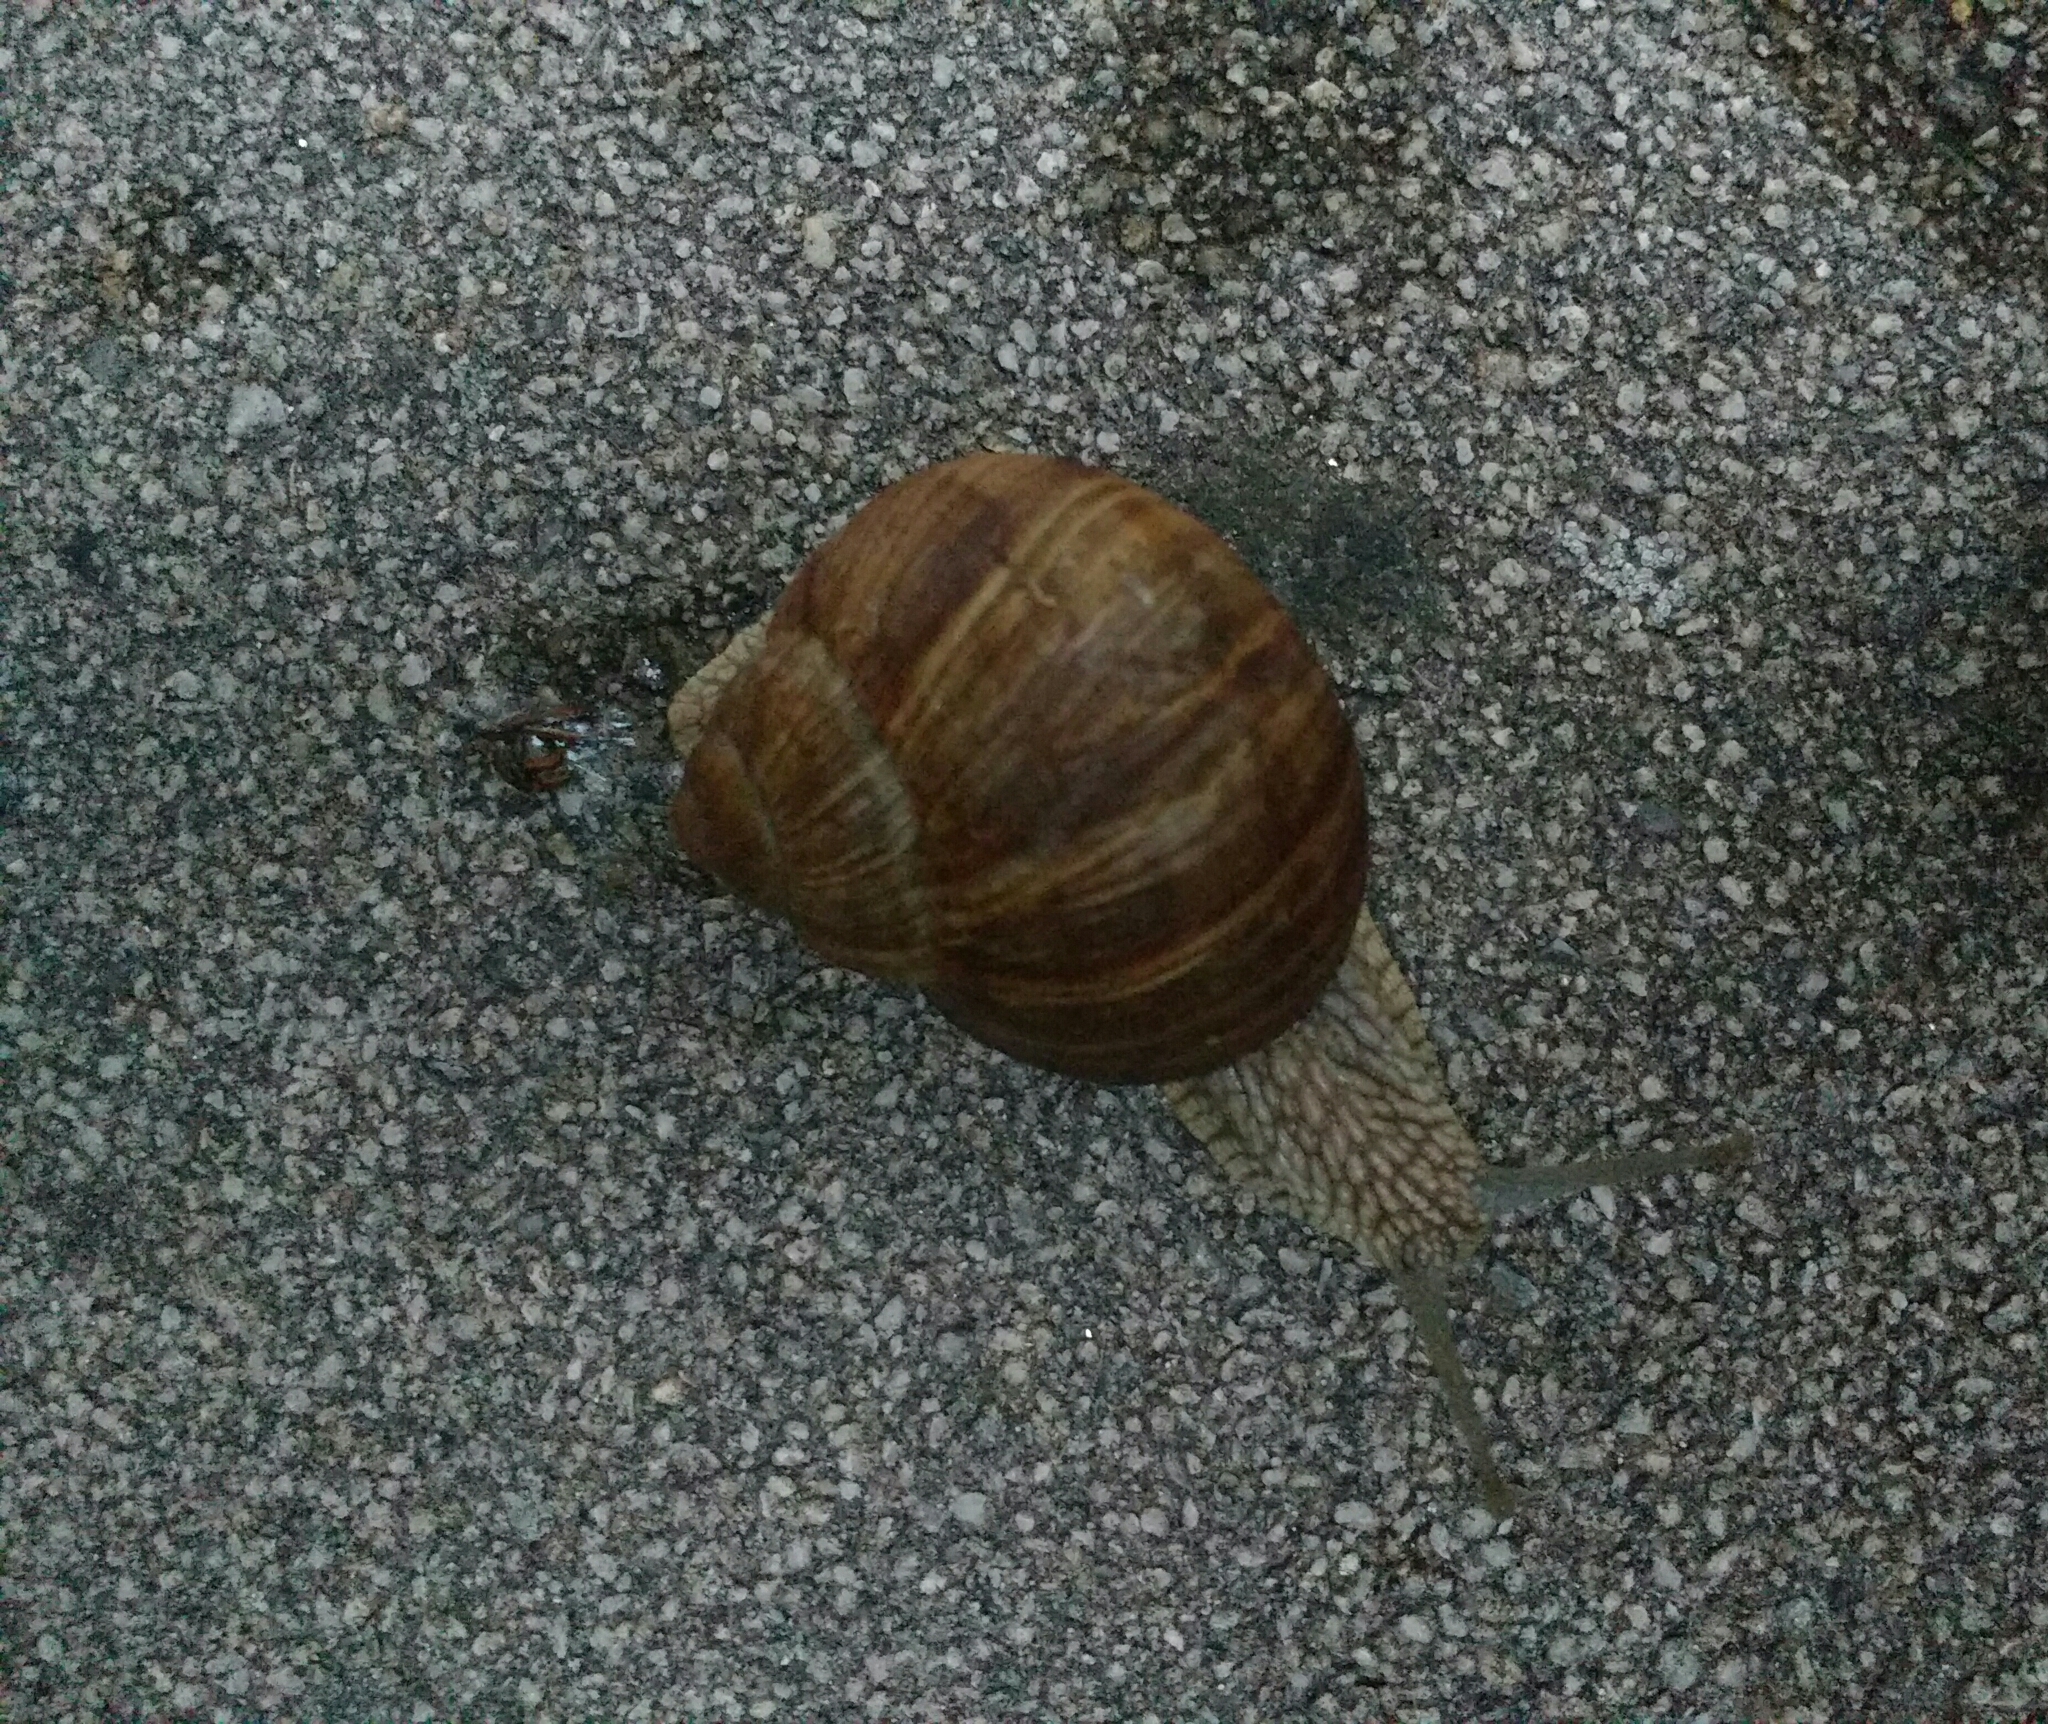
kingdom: Animalia
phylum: Mollusca
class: Gastropoda
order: Stylommatophora
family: Helicidae
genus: Helix
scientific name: Helix pomatia
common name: Roman snail
